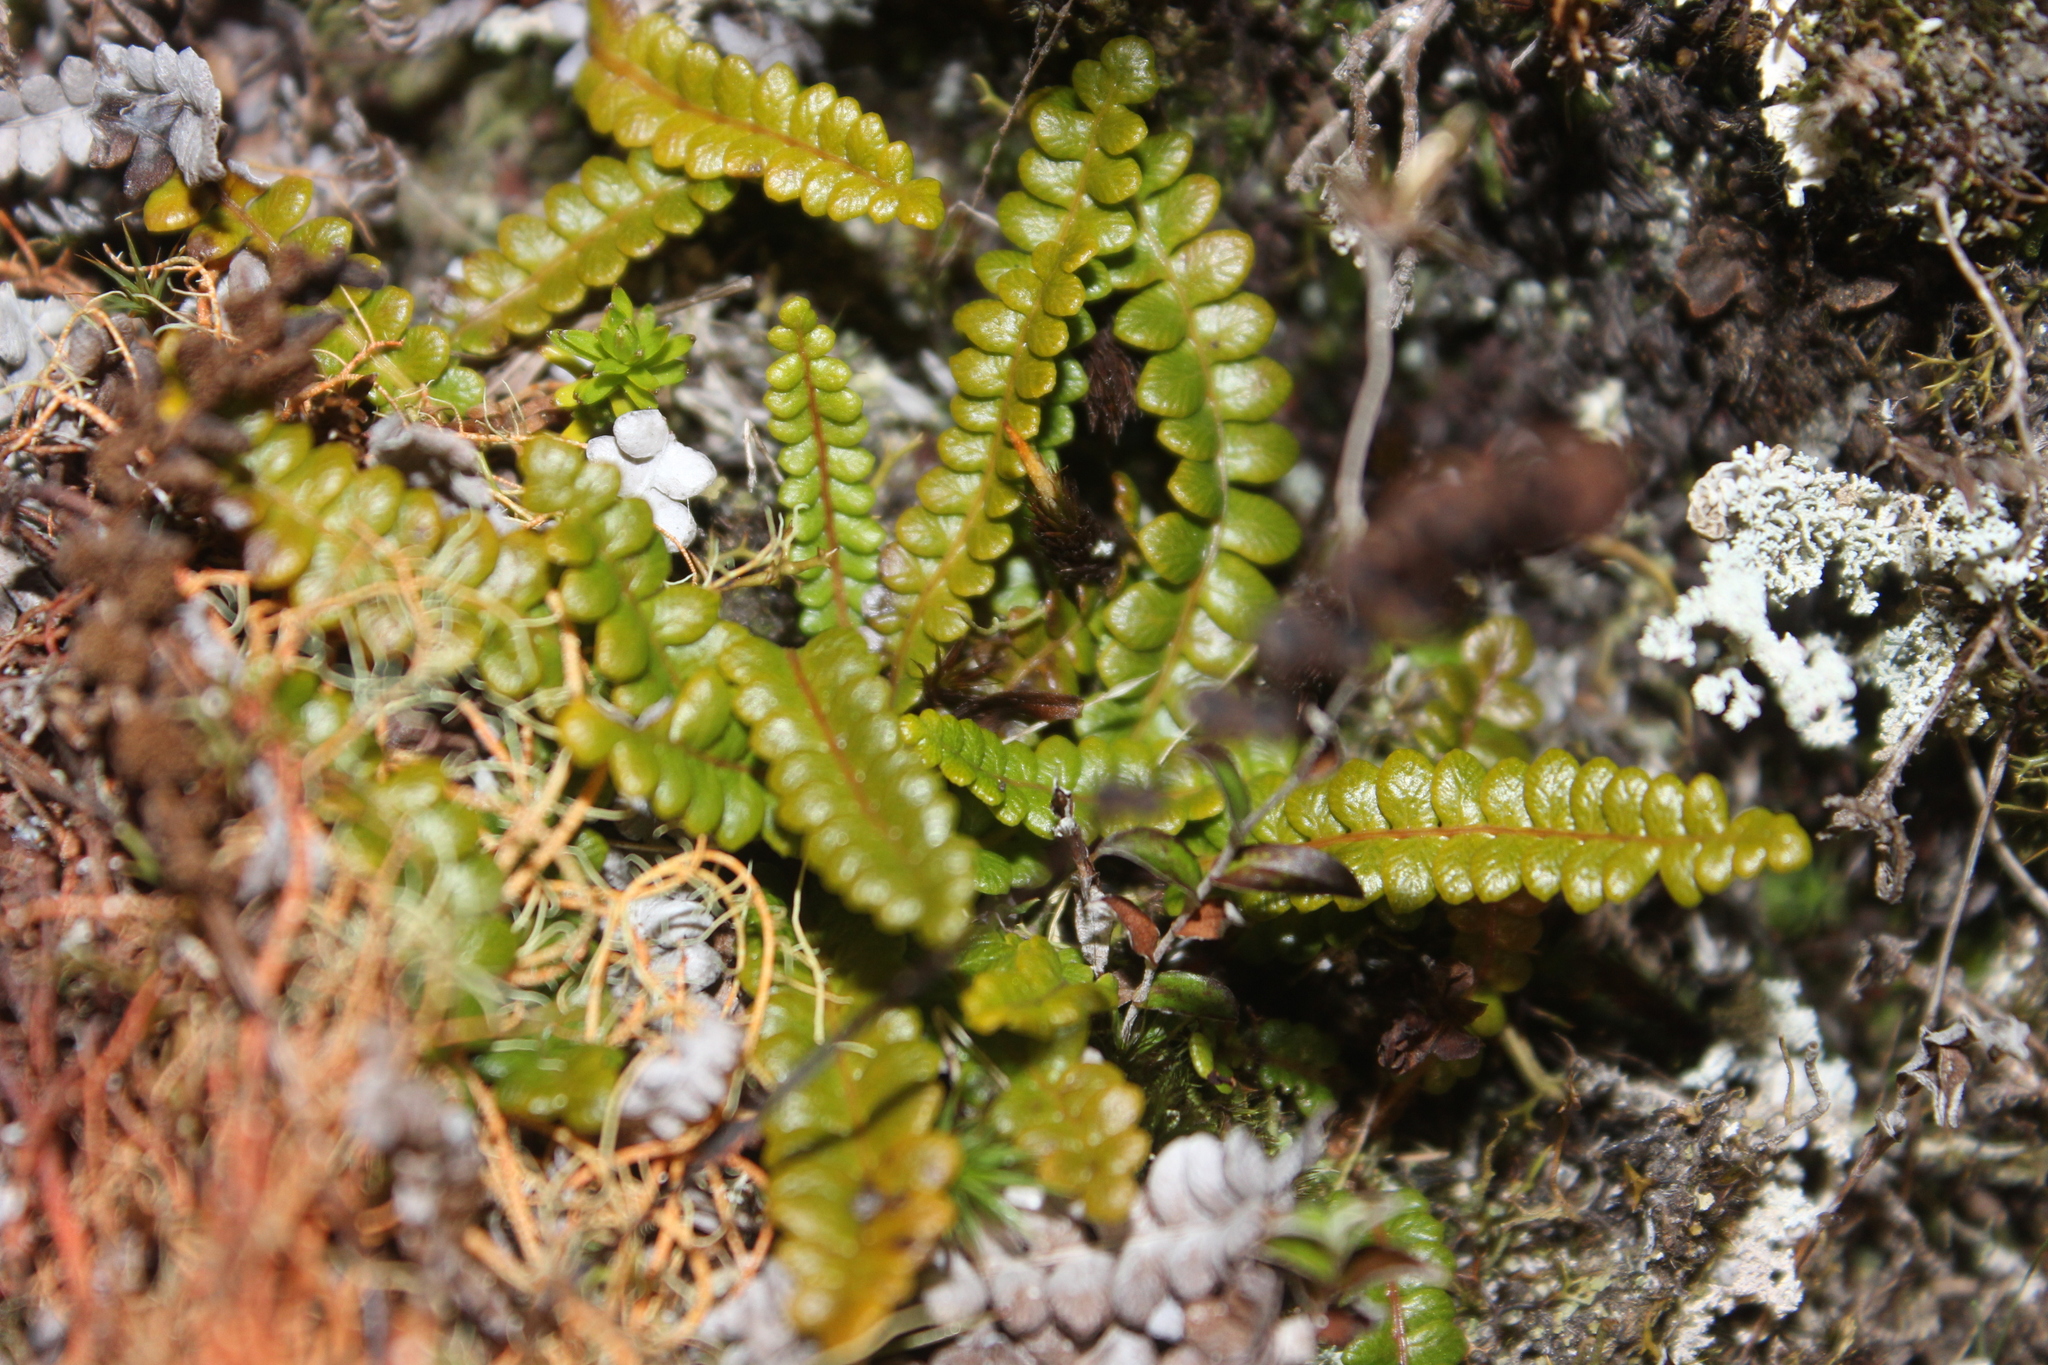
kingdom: Plantae
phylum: Tracheophyta
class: Polypodiopsida
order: Polypodiales
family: Blechnaceae
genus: Austroblechnum
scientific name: Austroblechnum penna-marina
